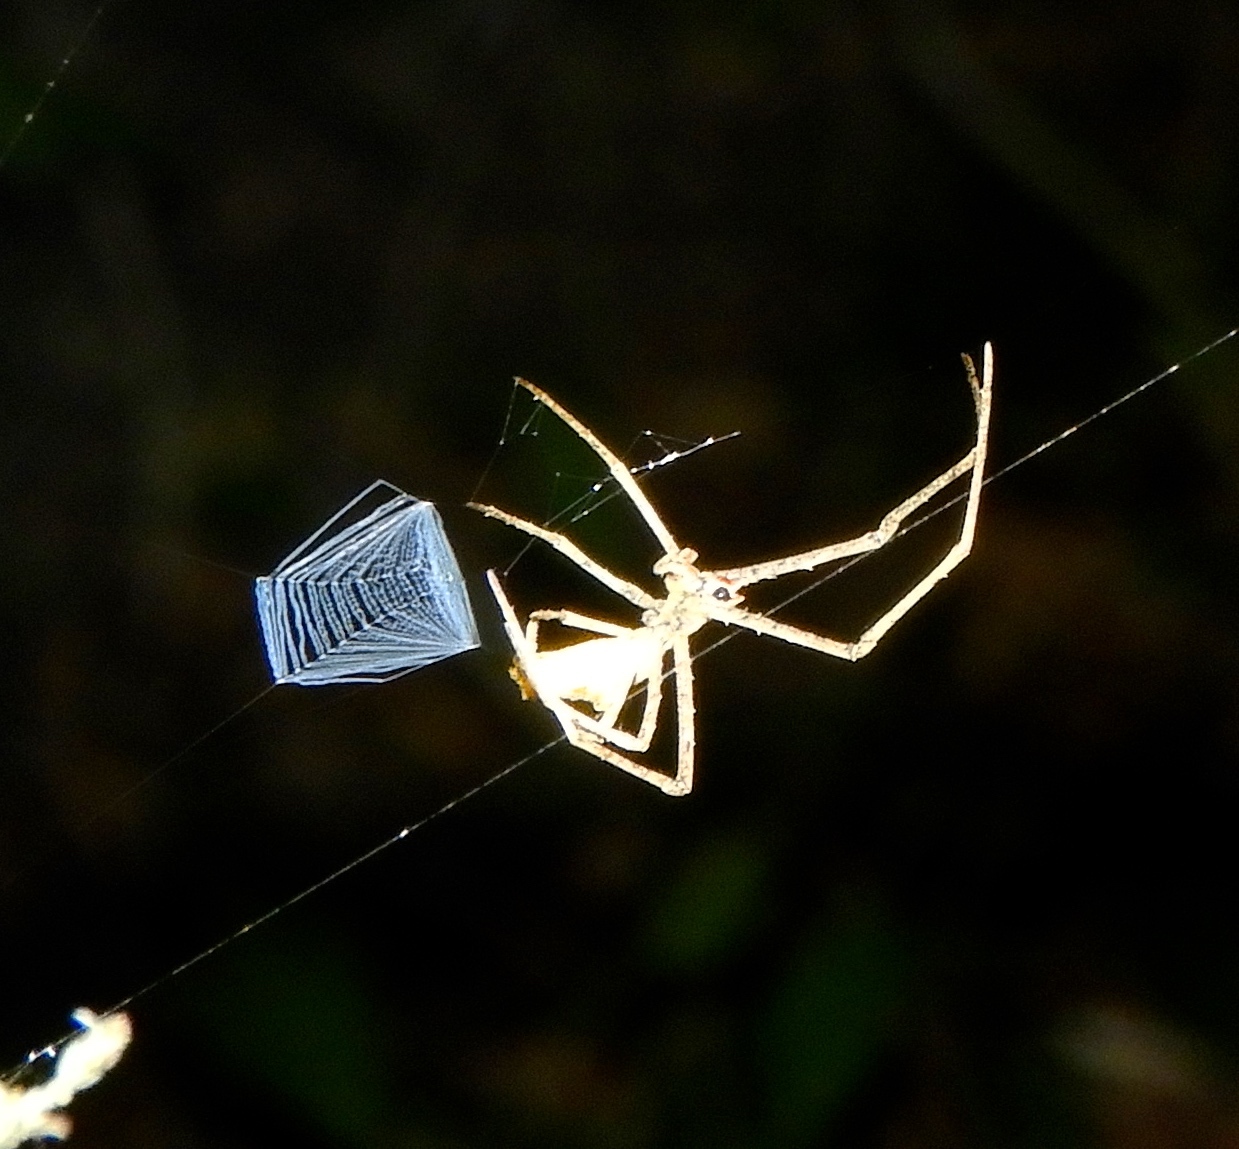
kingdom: Animalia
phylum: Arthropoda
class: Arachnida
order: Araneae
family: Deinopidae
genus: Deinopis
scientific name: Deinopis aurita
